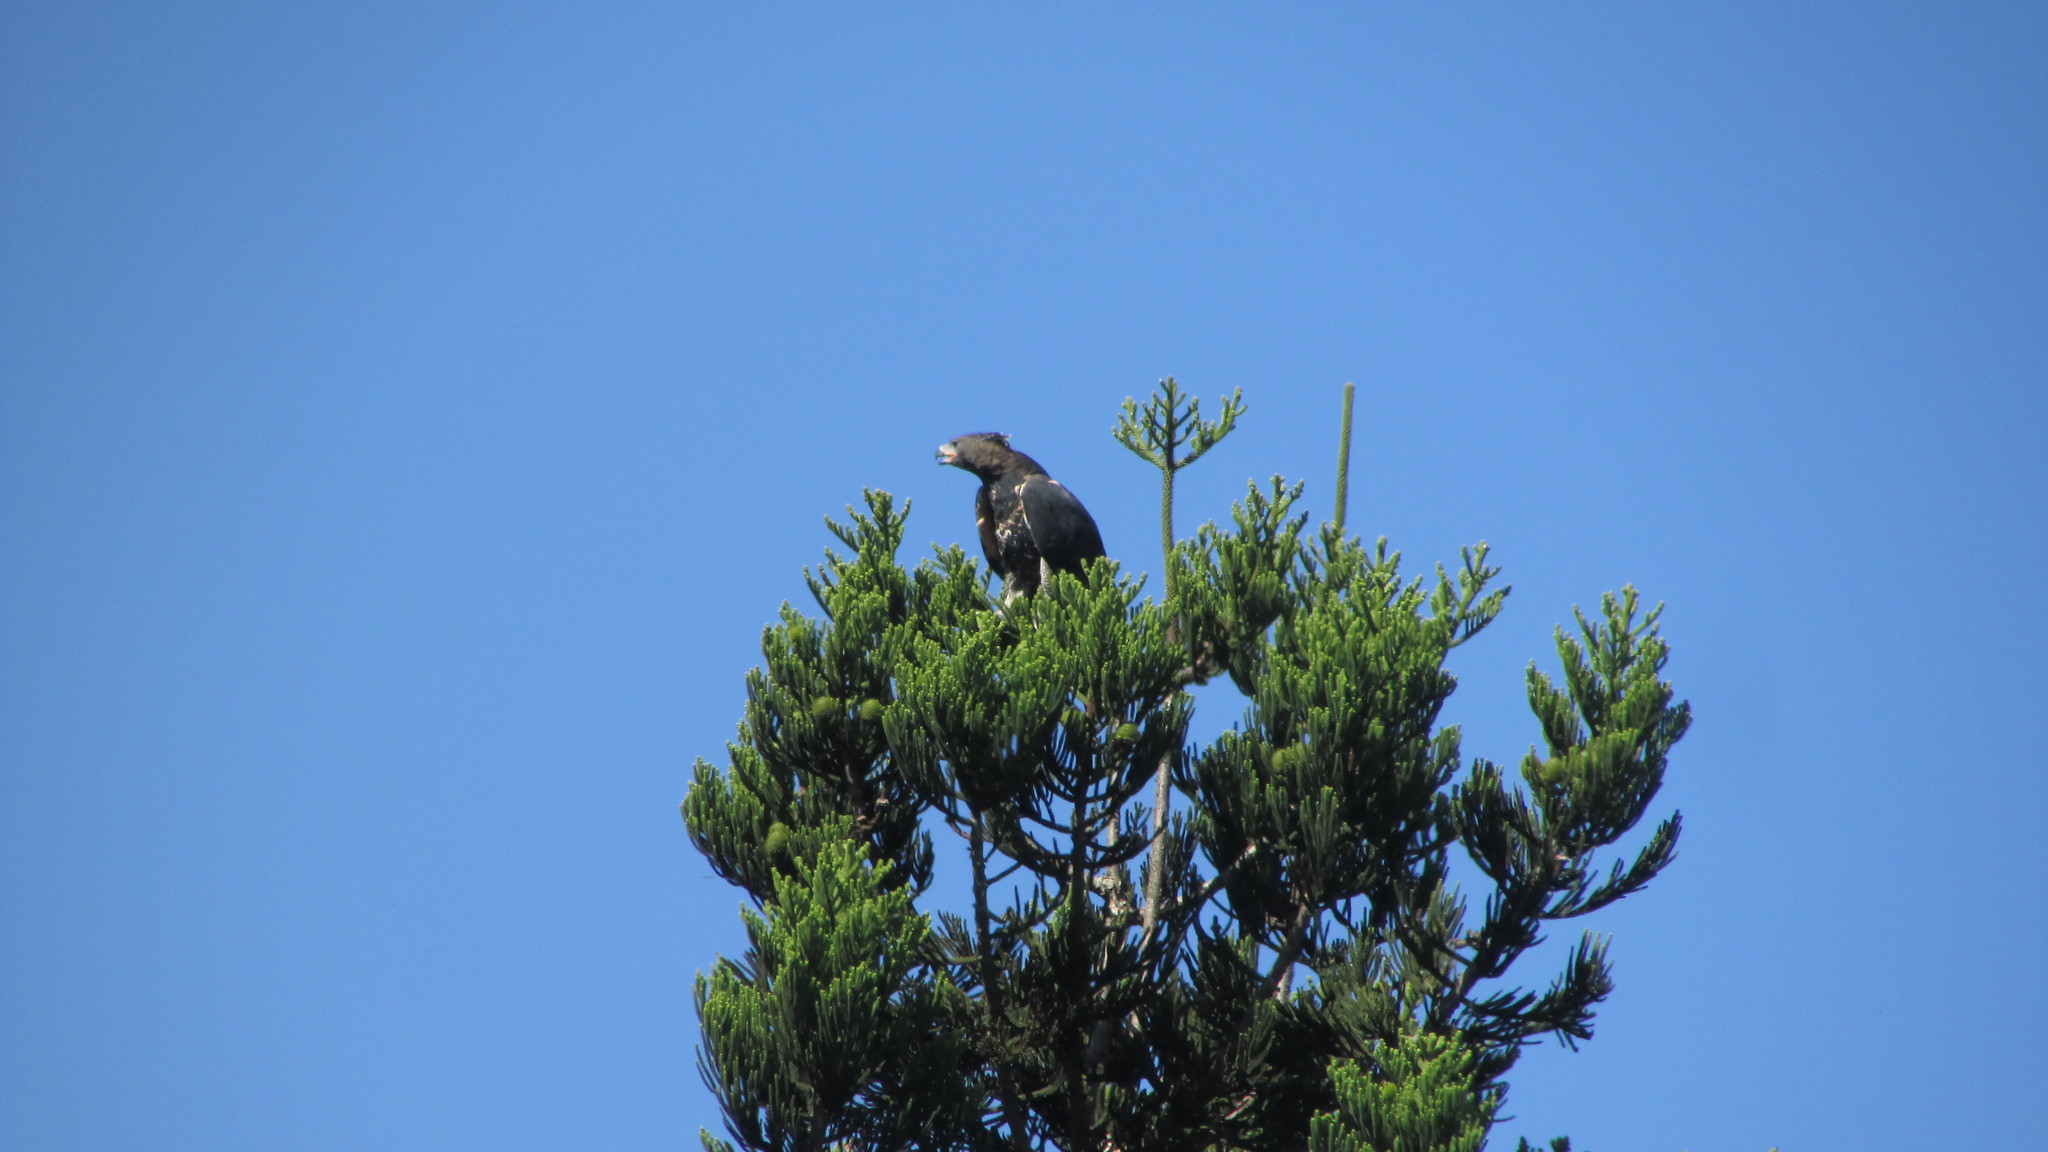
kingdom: Animalia
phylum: Chordata
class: Aves
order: Accipitriformes
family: Accipitridae
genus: Stephanoaetus
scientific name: Stephanoaetus coronatus
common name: Crowned eagle
